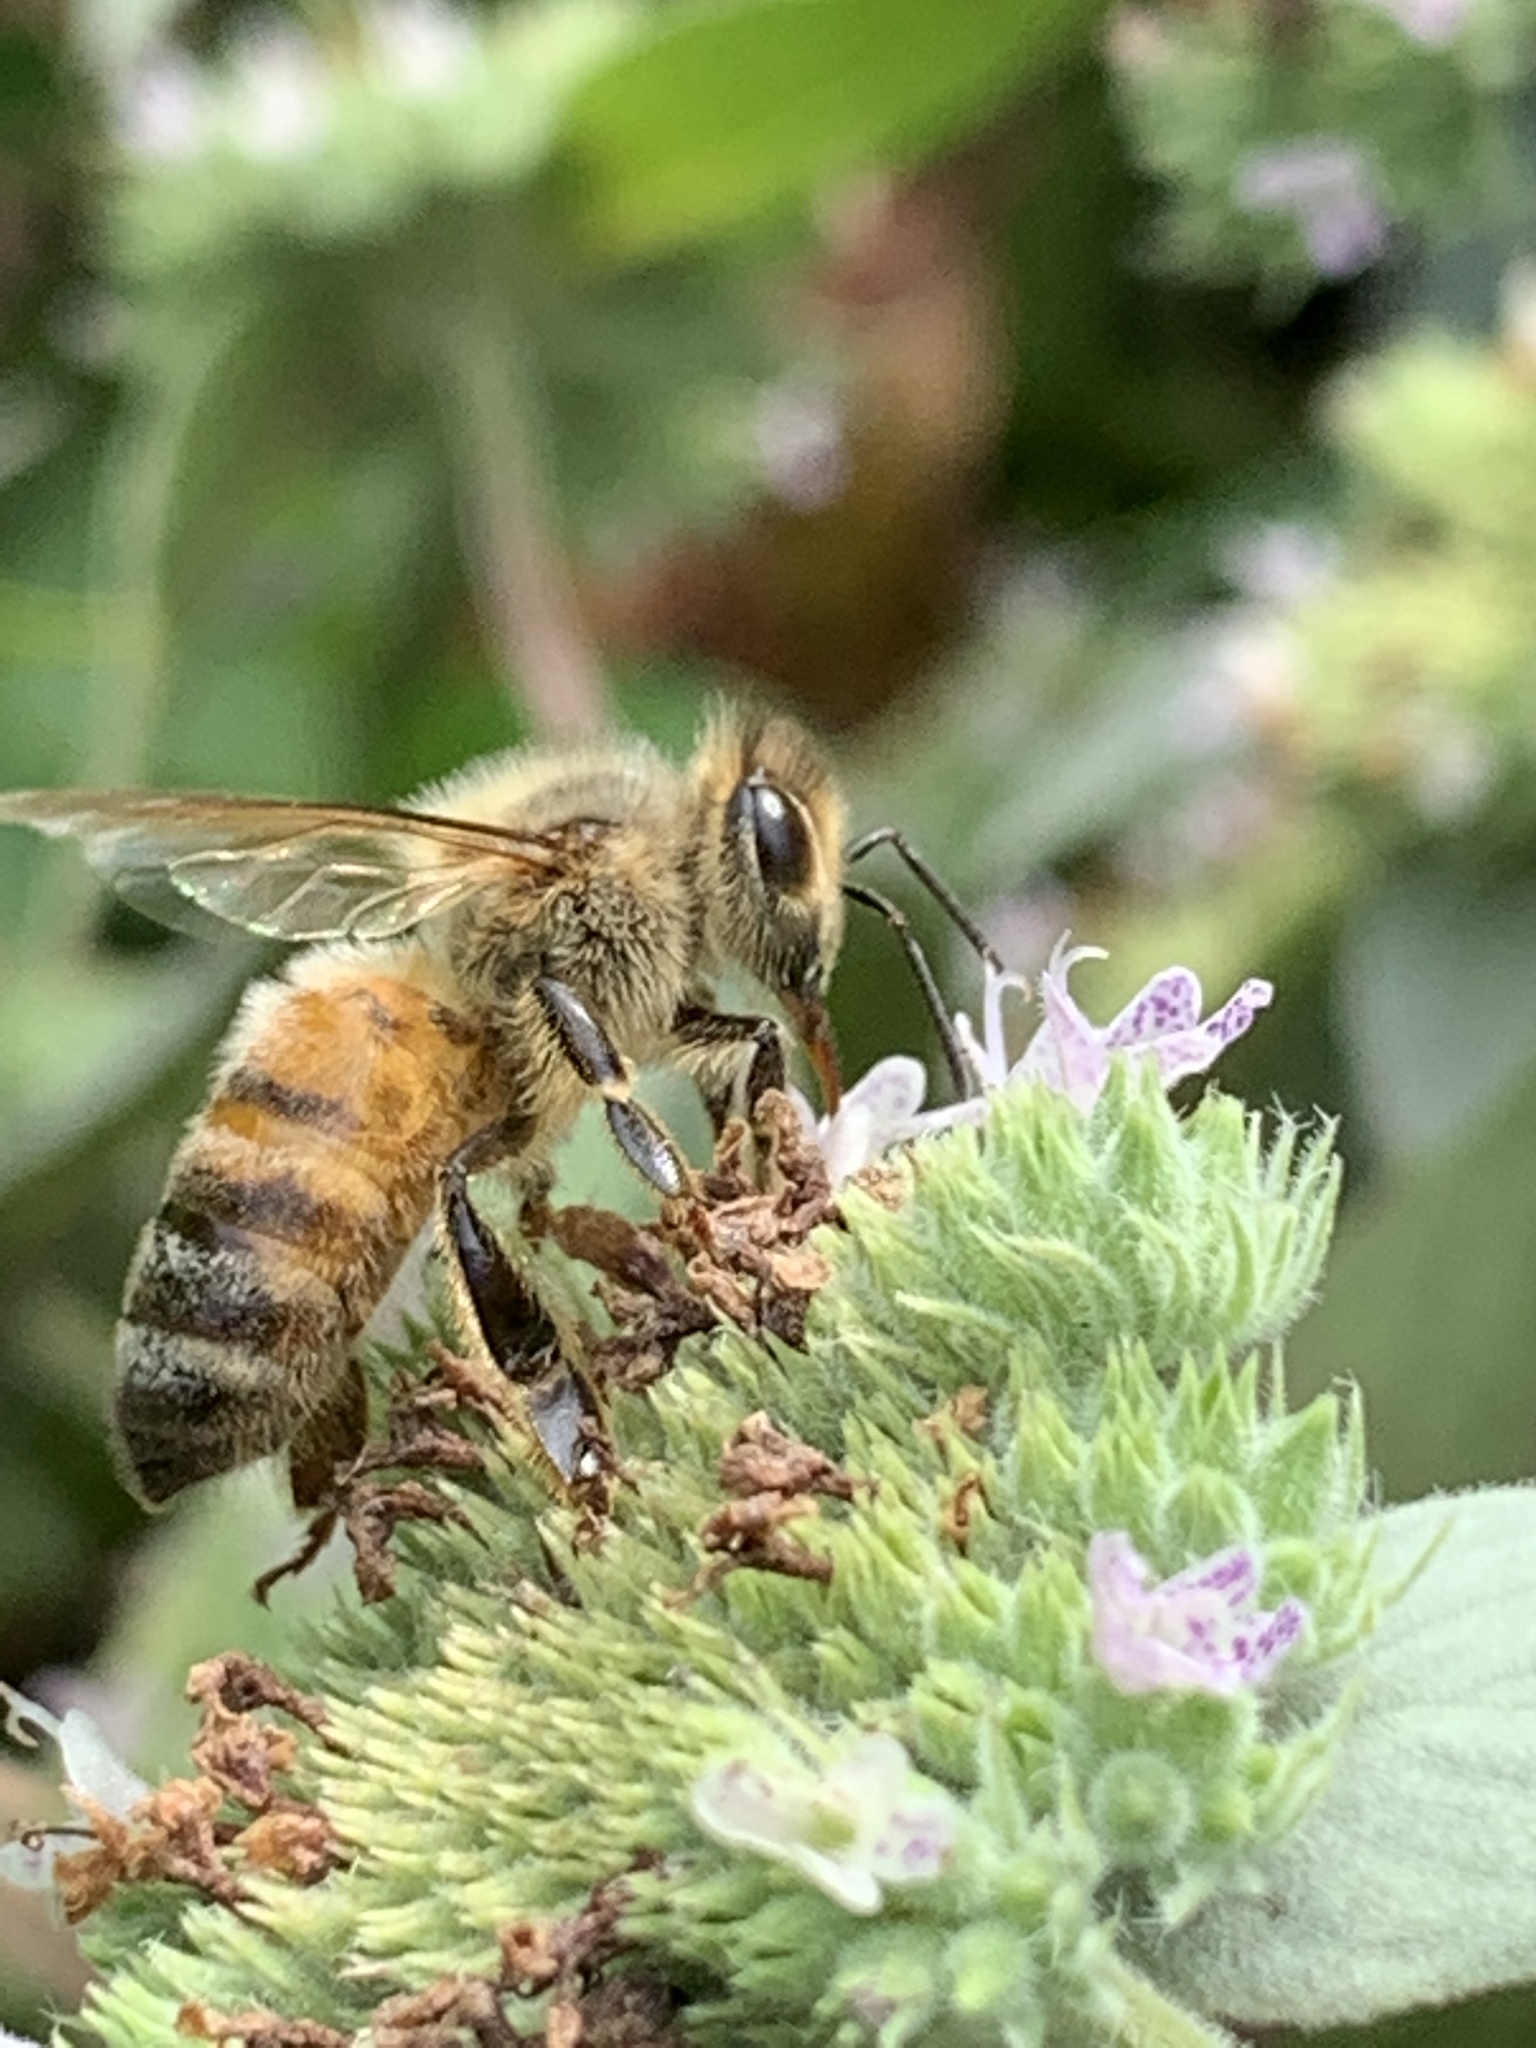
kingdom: Animalia
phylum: Arthropoda
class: Insecta
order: Hymenoptera
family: Apidae
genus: Apis
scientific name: Apis mellifera
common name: Honey bee
